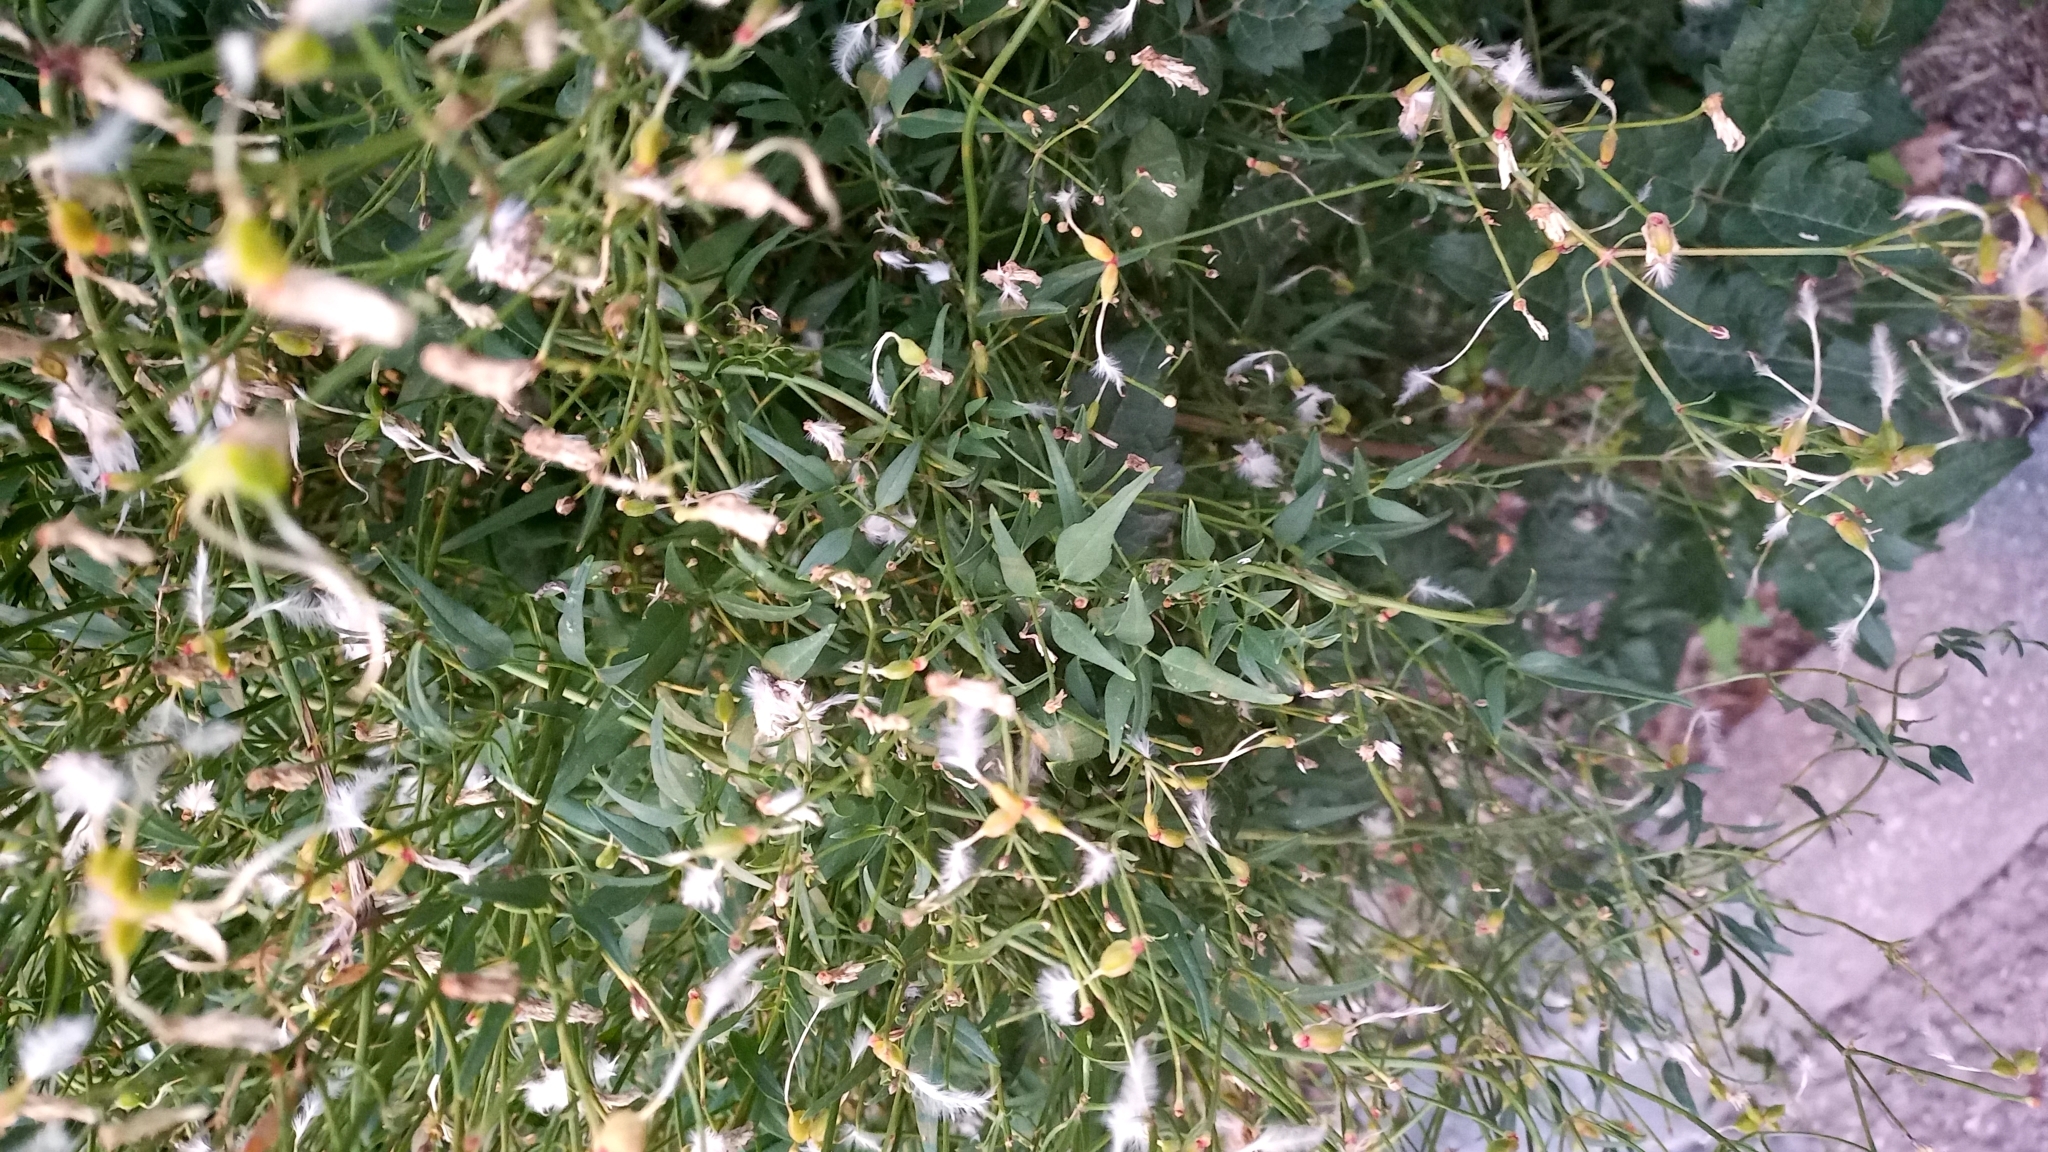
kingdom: Plantae
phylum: Tracheophyta
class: Magnoliopsida
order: Ranunculales
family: Ranunculaceae
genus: Clematis
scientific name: Clematis flammula
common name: Virgin's-bower
